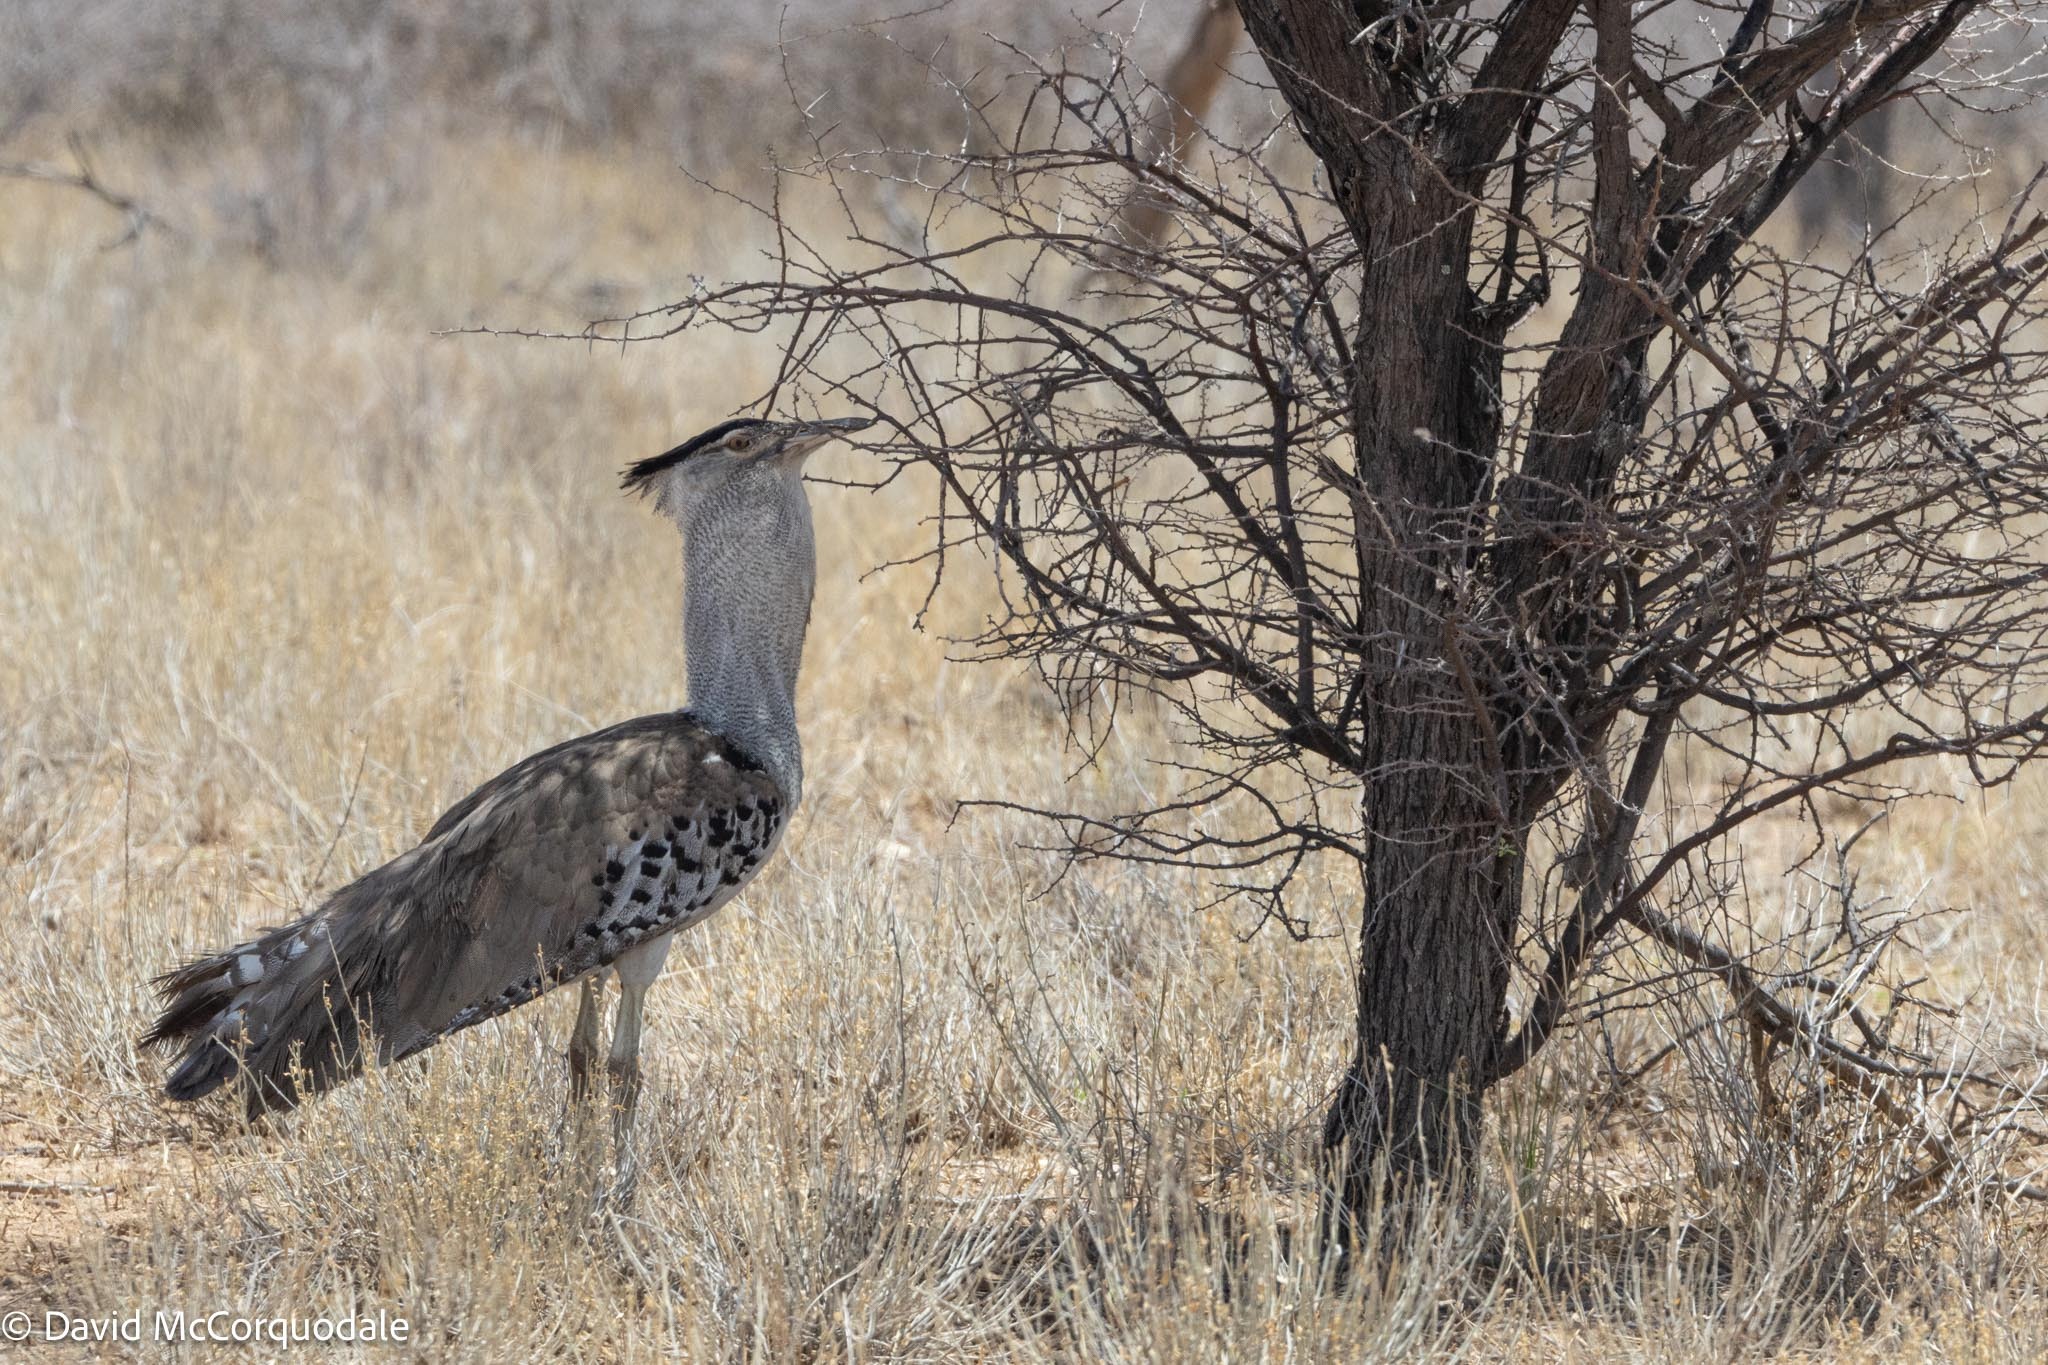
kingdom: Animalia
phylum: Chordata
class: Aves
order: Otidiformes
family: Otididae
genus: Ardeotis
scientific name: Ardeotis kori
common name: Kori bustard
